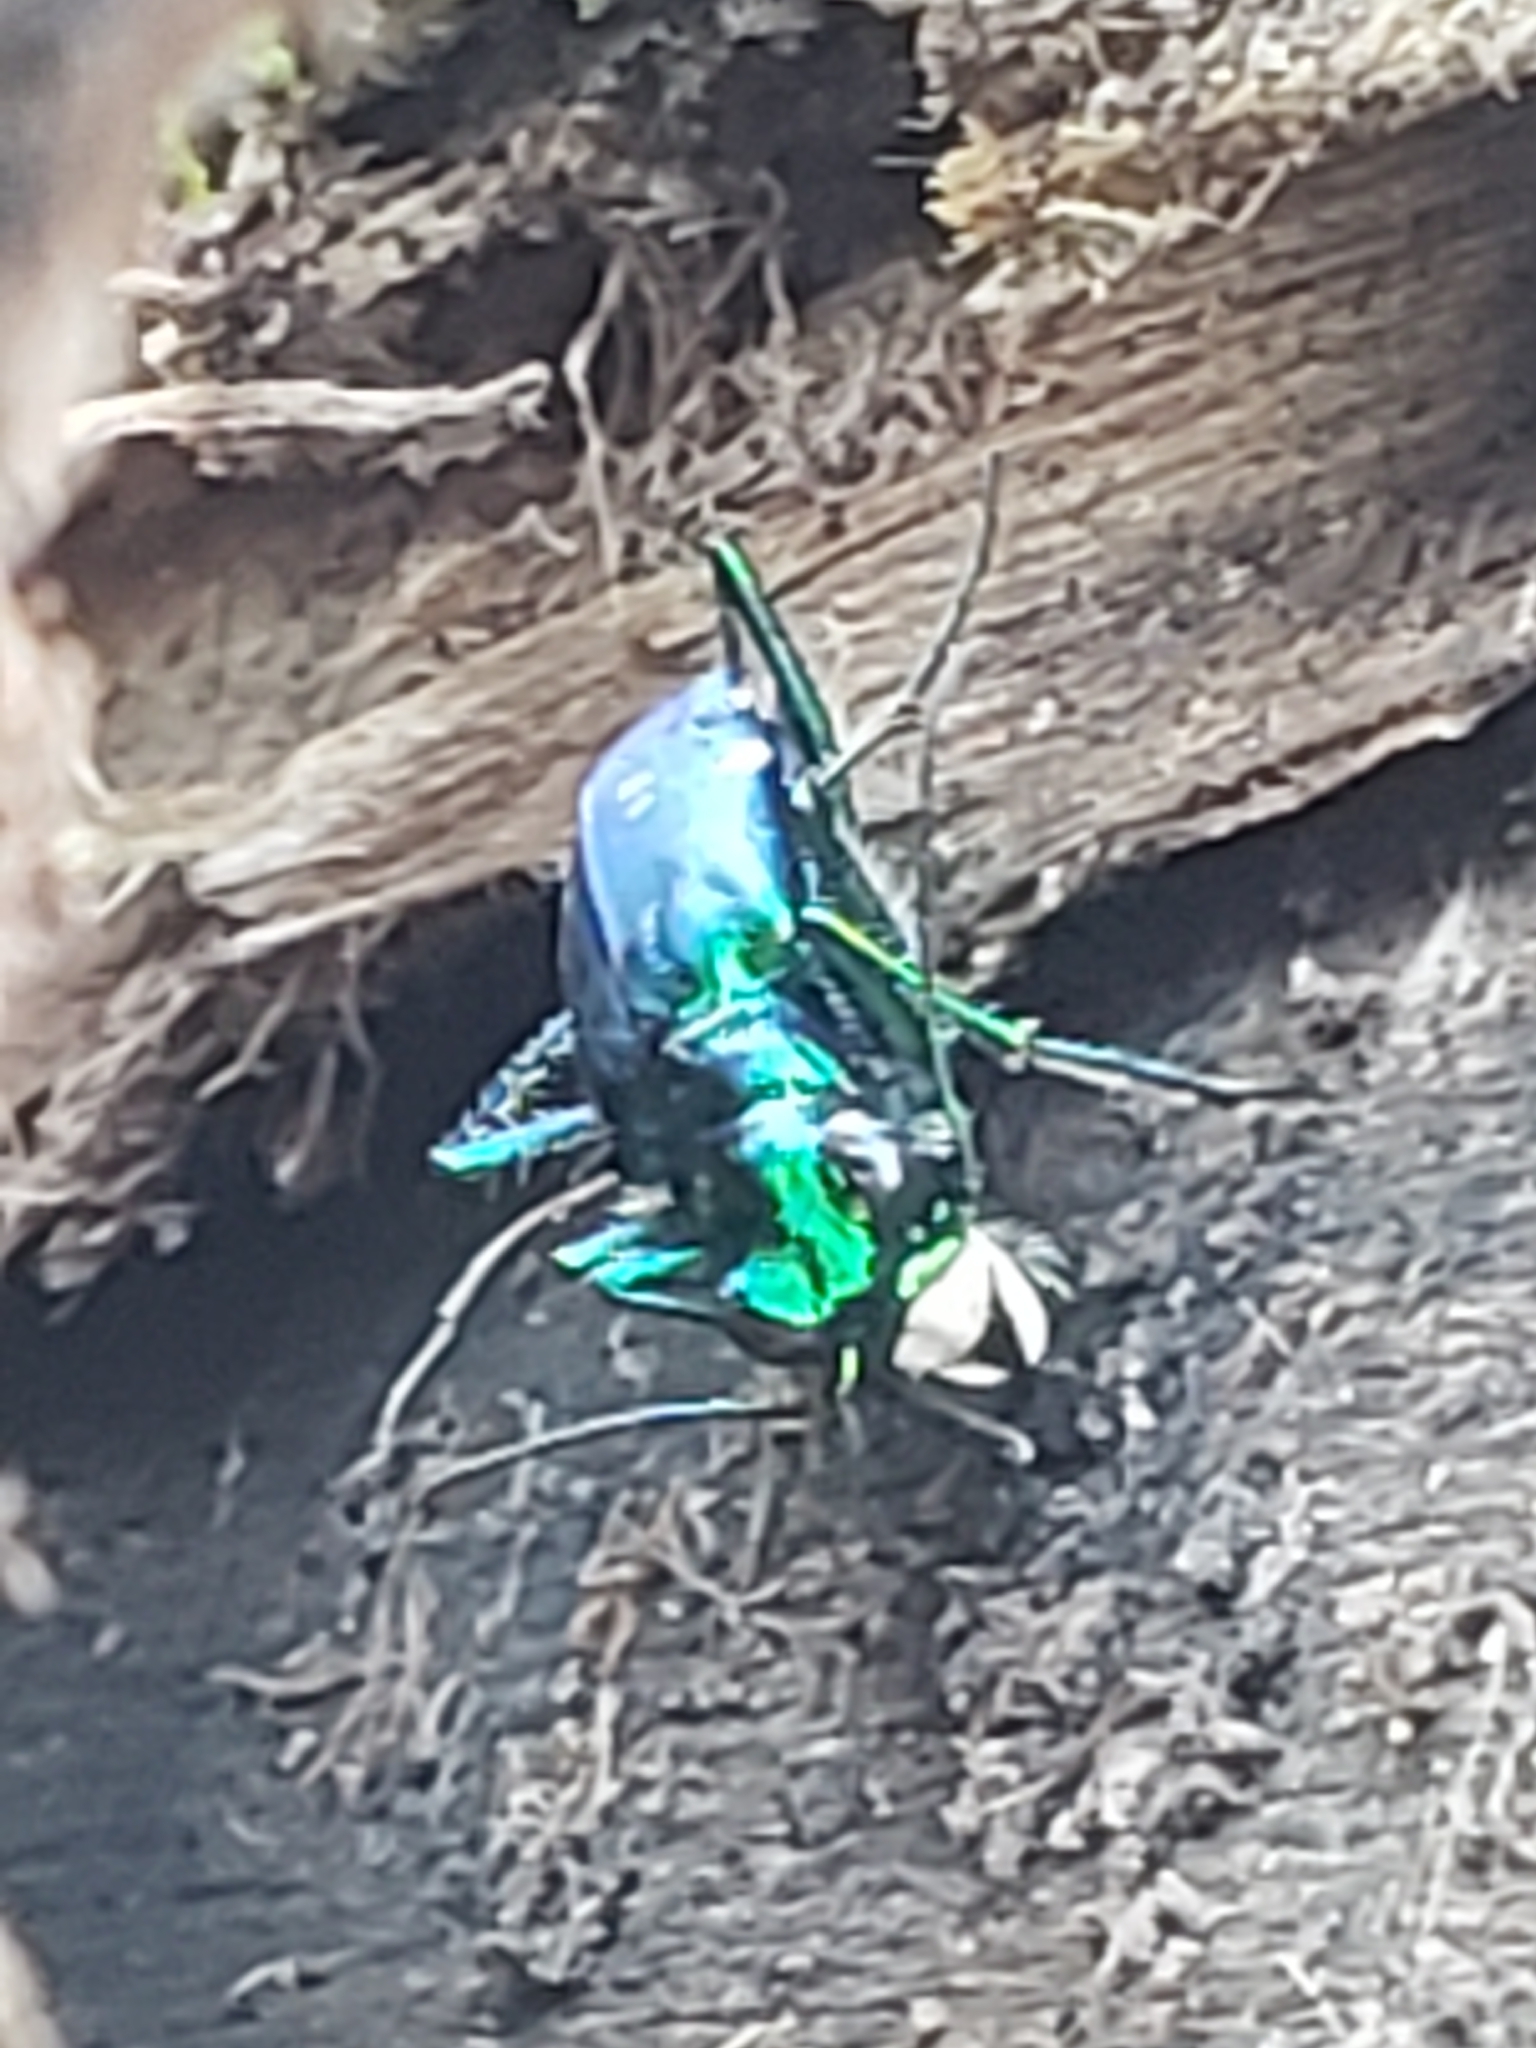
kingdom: Animalia
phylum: Arthropoda
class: Insecta
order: Coleoptera
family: Carabidae
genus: Cicindela
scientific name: Cicindela sexguttata
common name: Six-spotted tiger beetle
